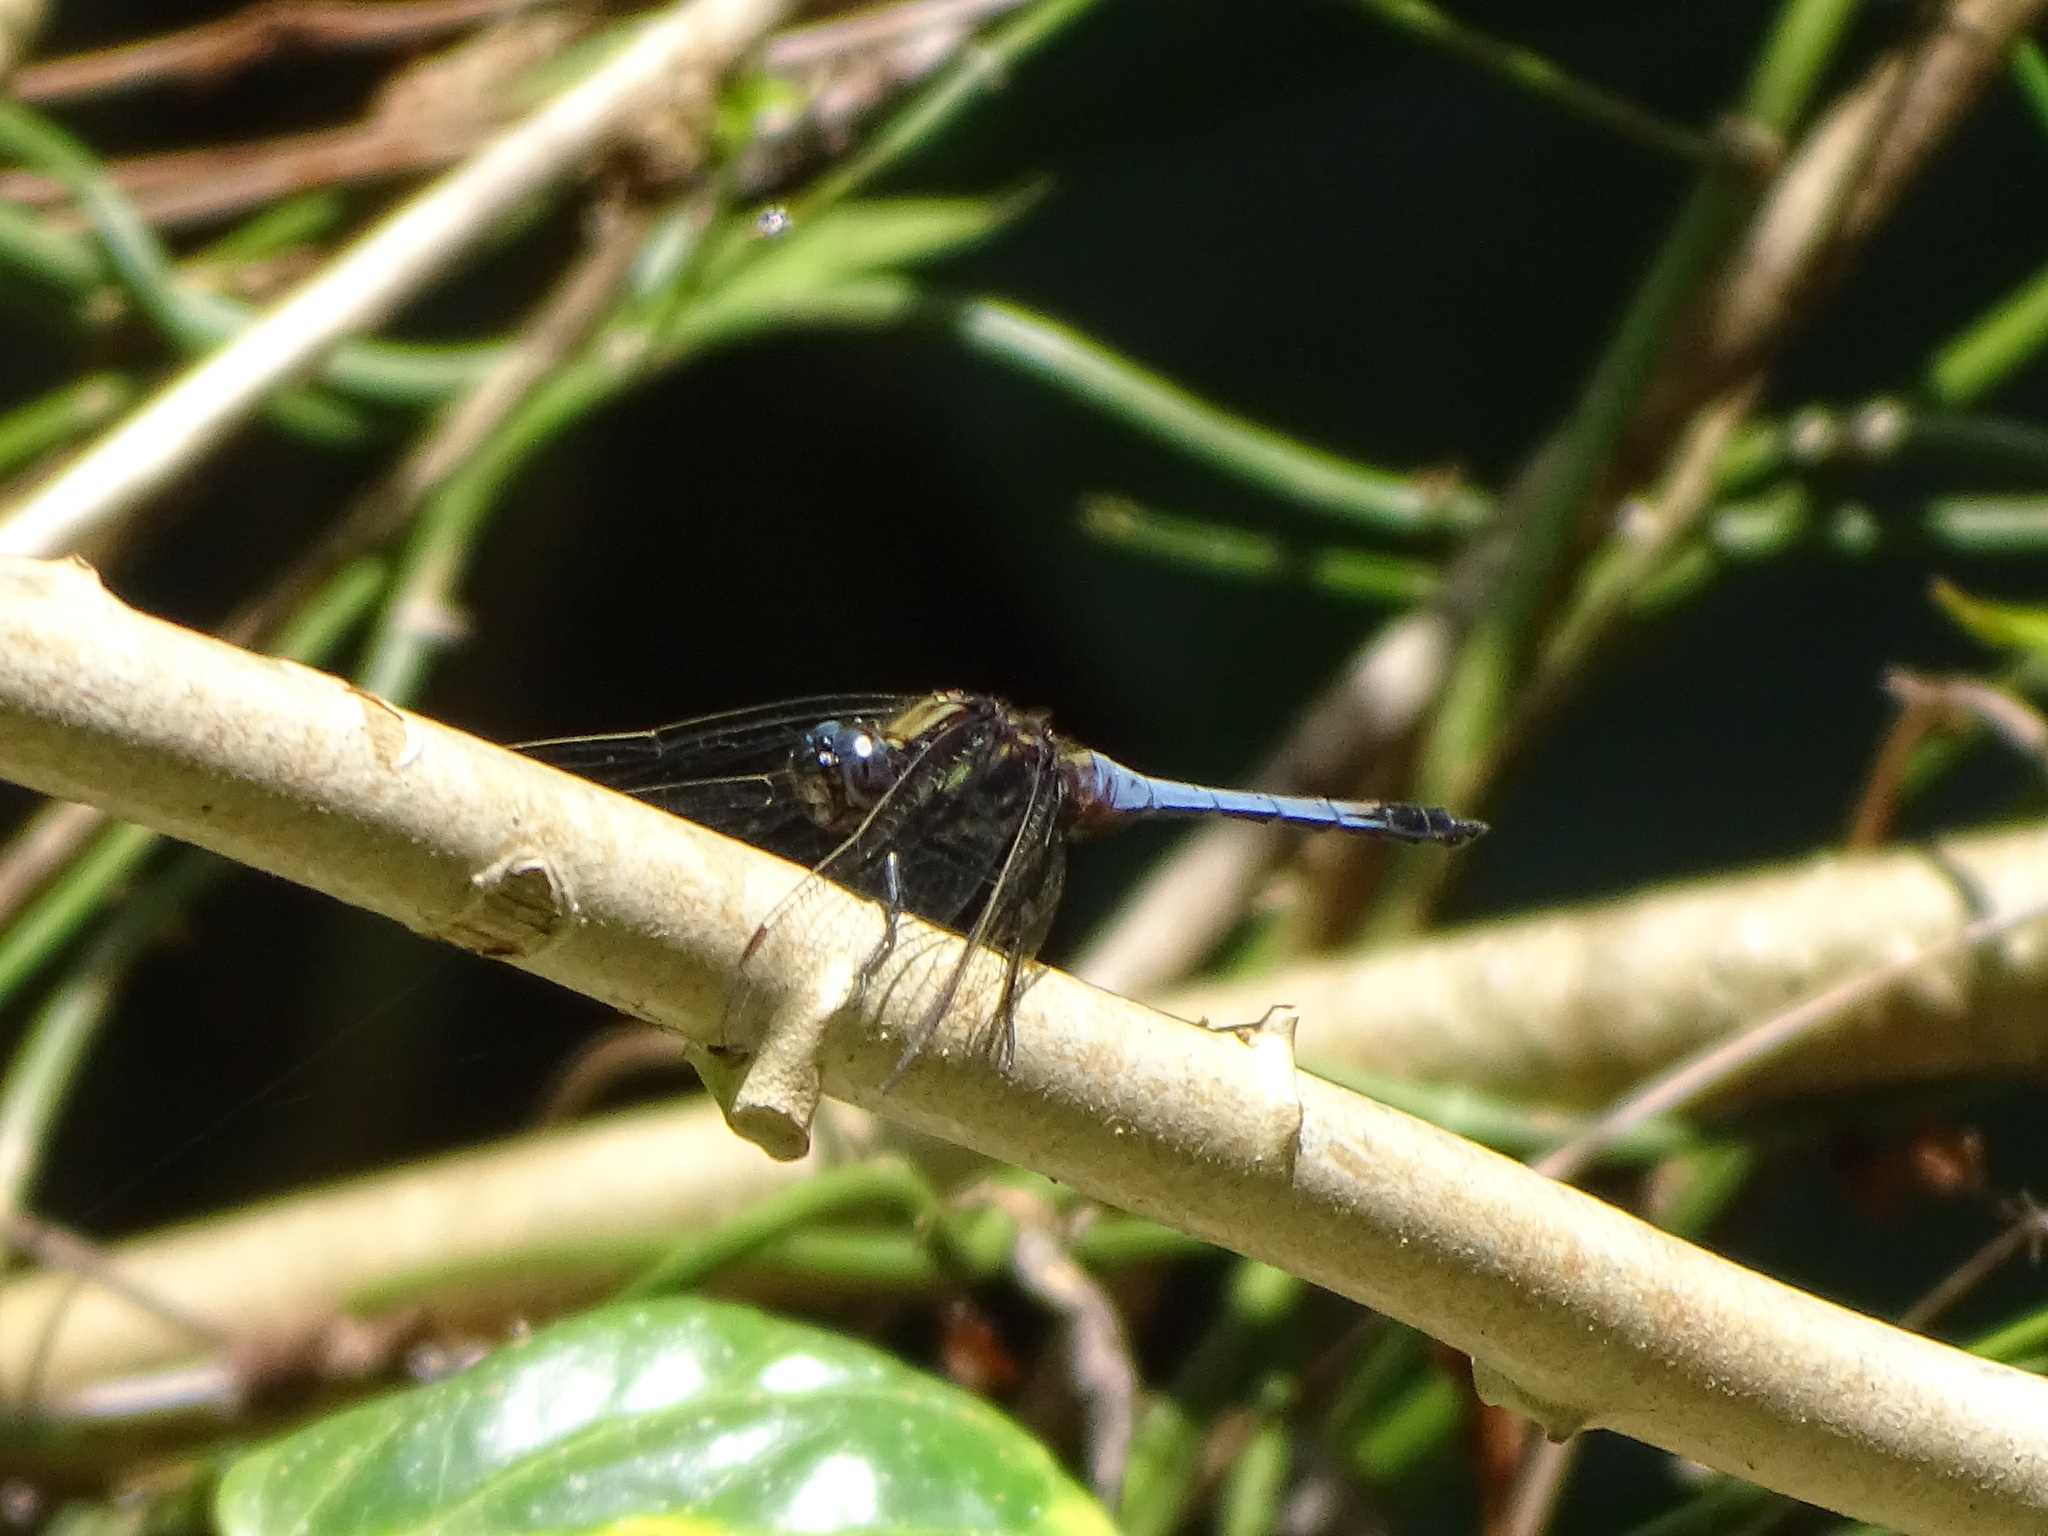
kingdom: Animalia
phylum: Arthropoda
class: Insecta
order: Odonata
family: Libellulidae
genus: Orthetrum
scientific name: Orthetrum glaucum
